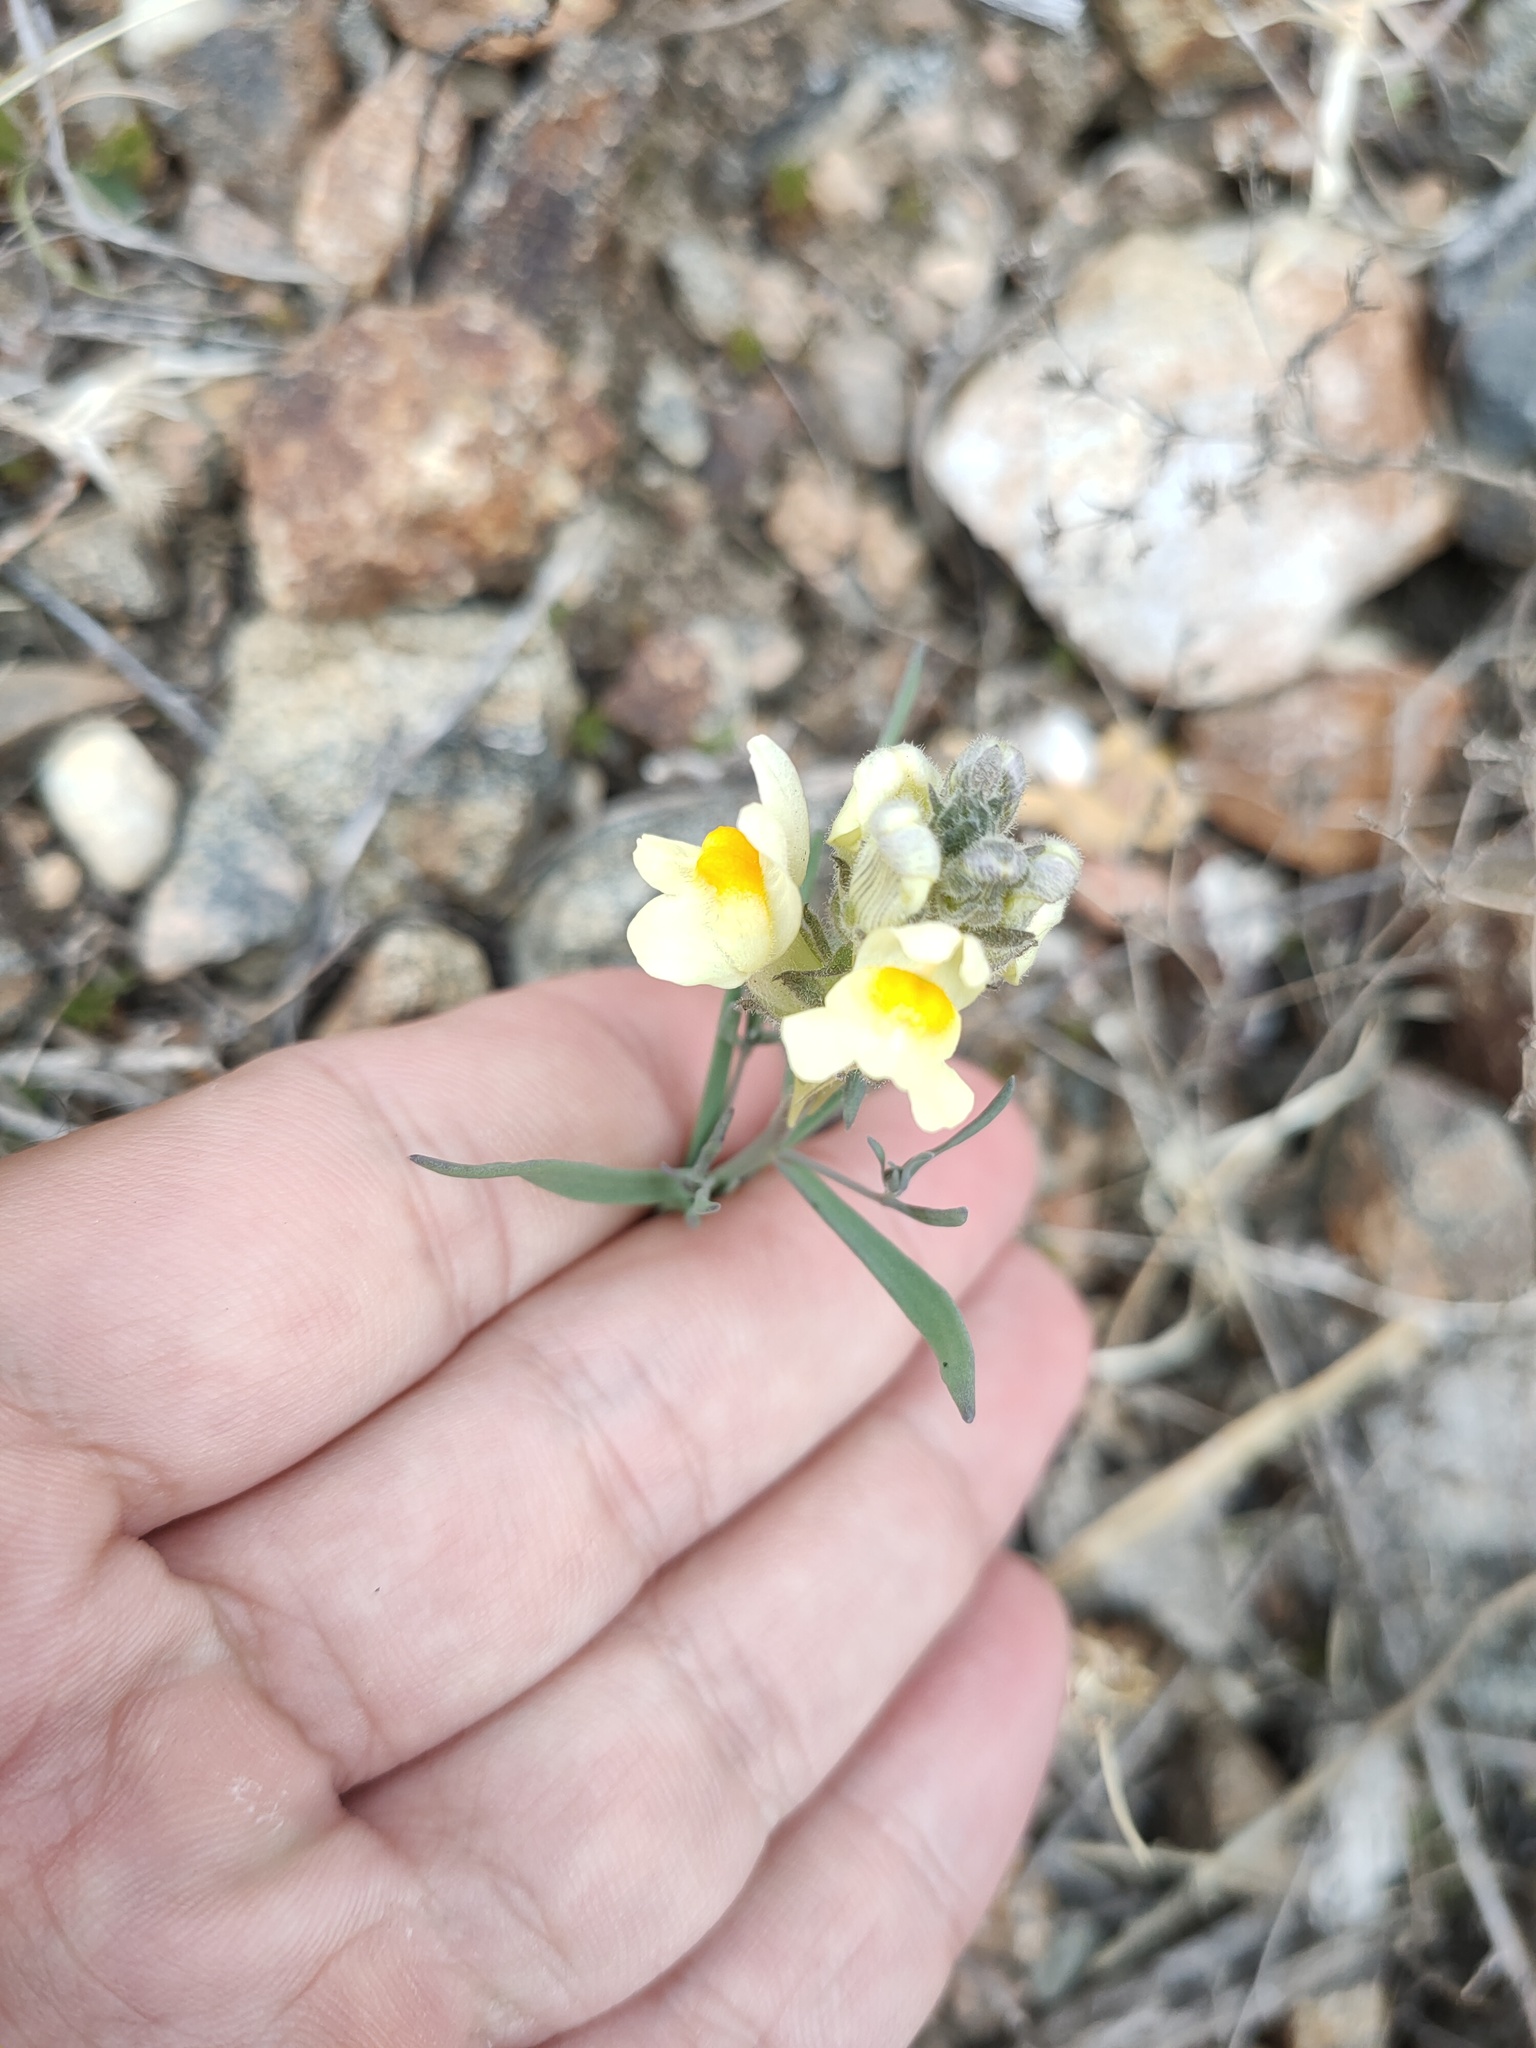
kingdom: Plantae
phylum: Tracheophyta
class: Magnoliopsida
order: Lamiales
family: Plantaginaceae
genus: Linaria
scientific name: Linaria buriatica
